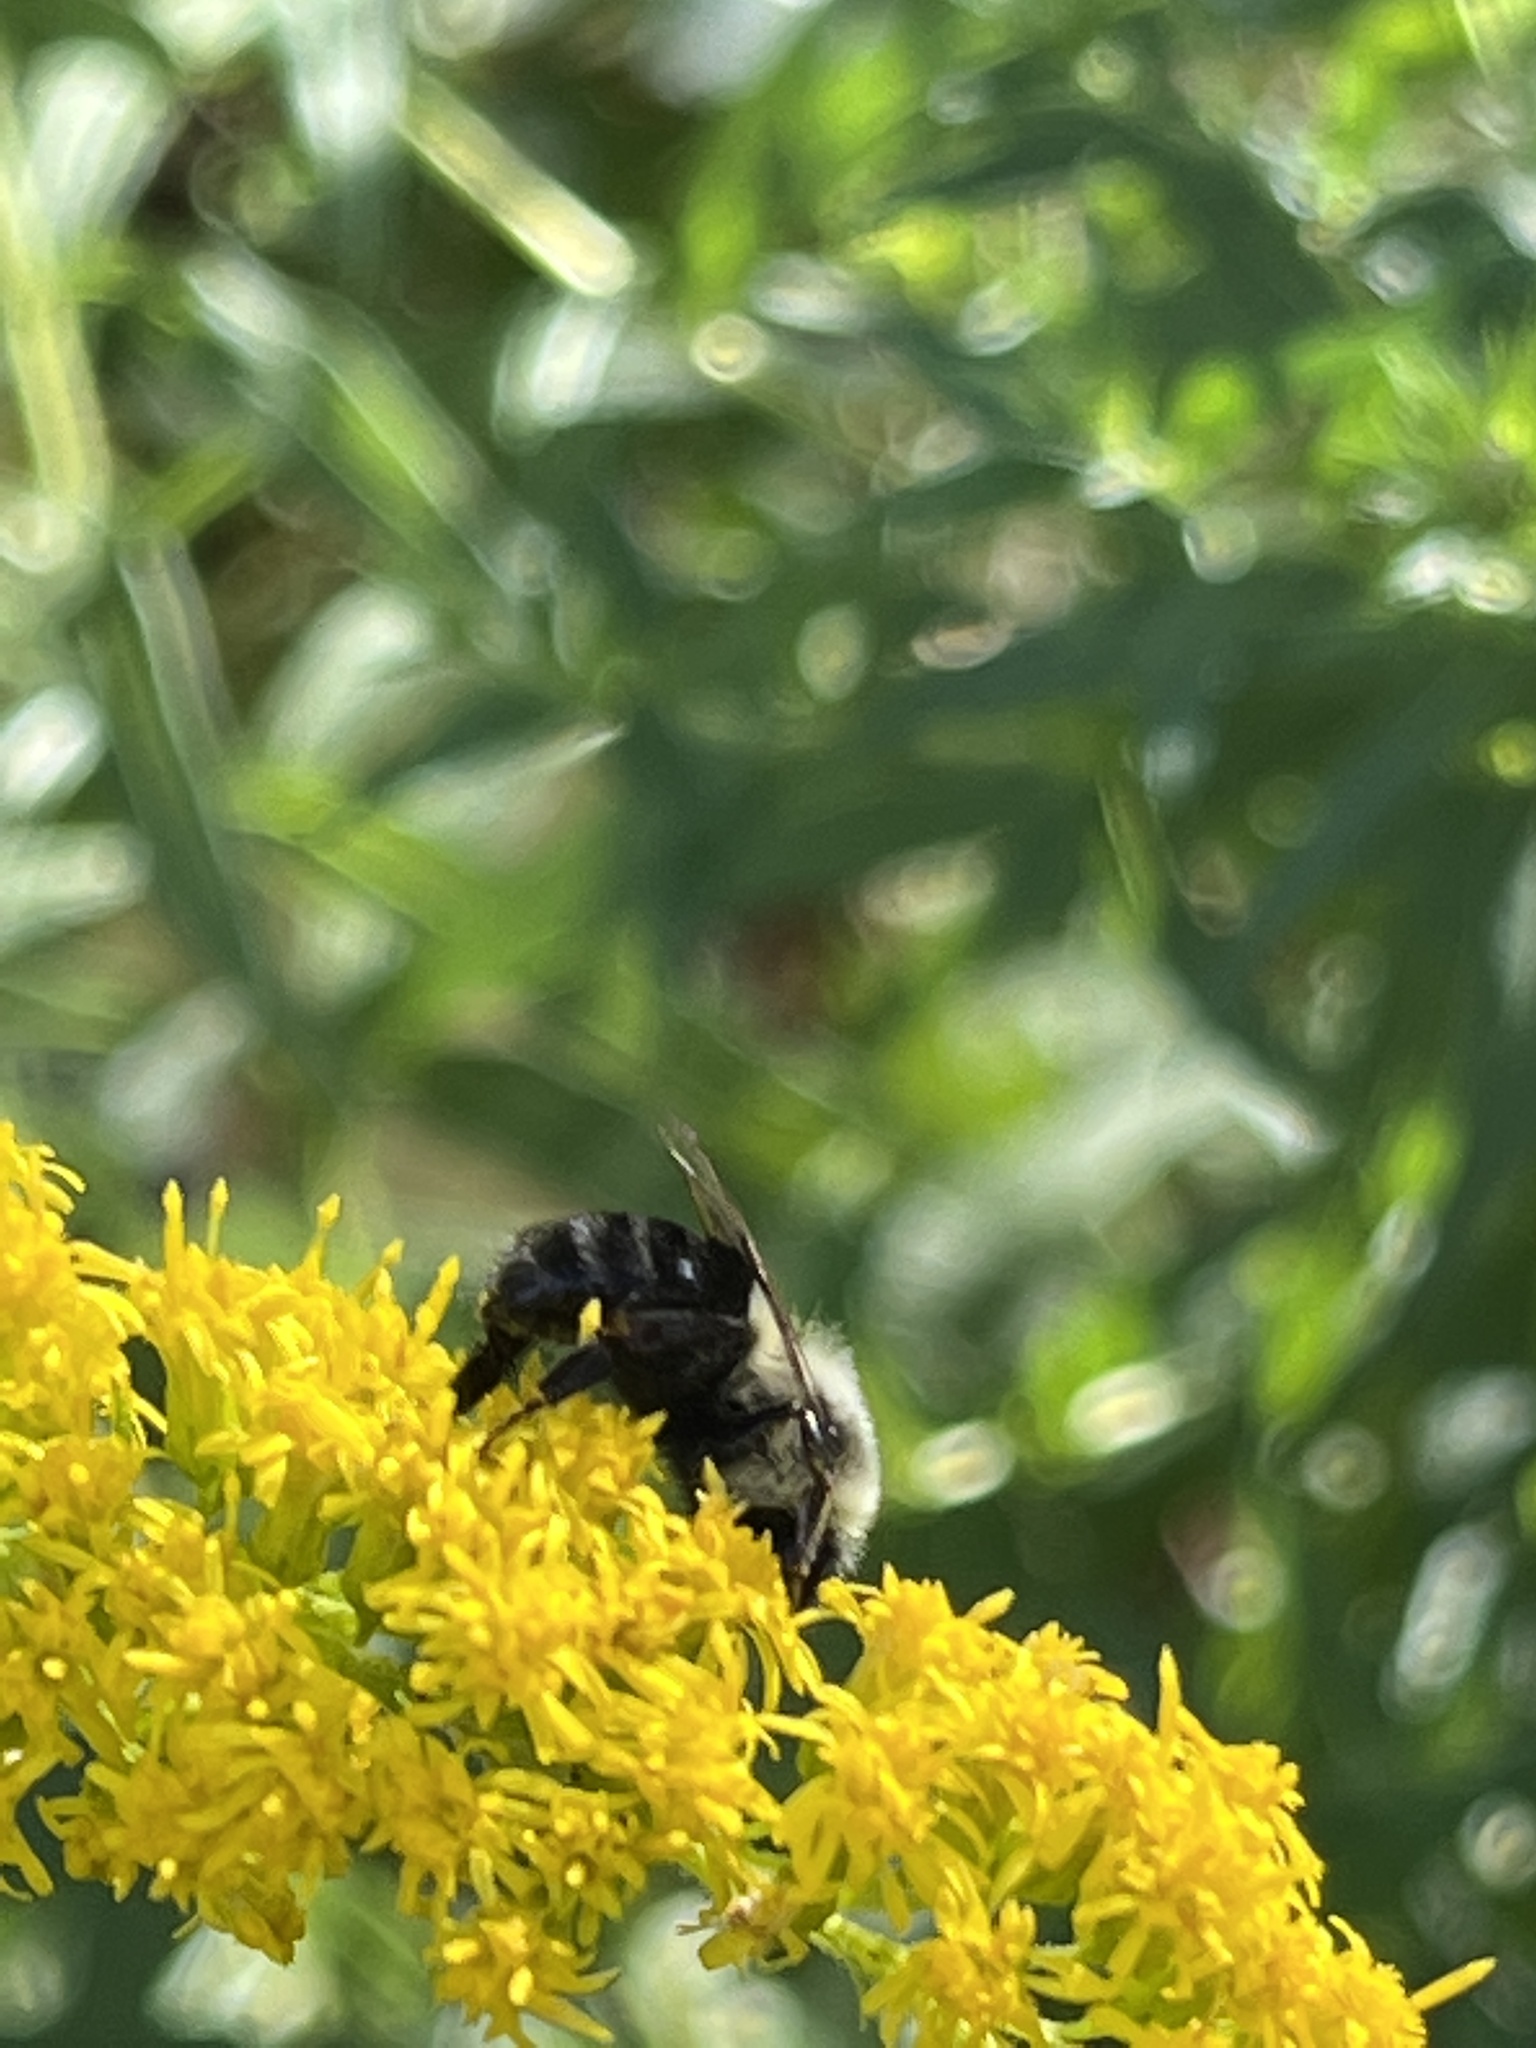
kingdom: Animalia
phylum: Arthropoda
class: Insecta
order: Hymenoptera
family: Apidae
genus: Bombus
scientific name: Bombus impatiens
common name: Common eastern bumble bee
